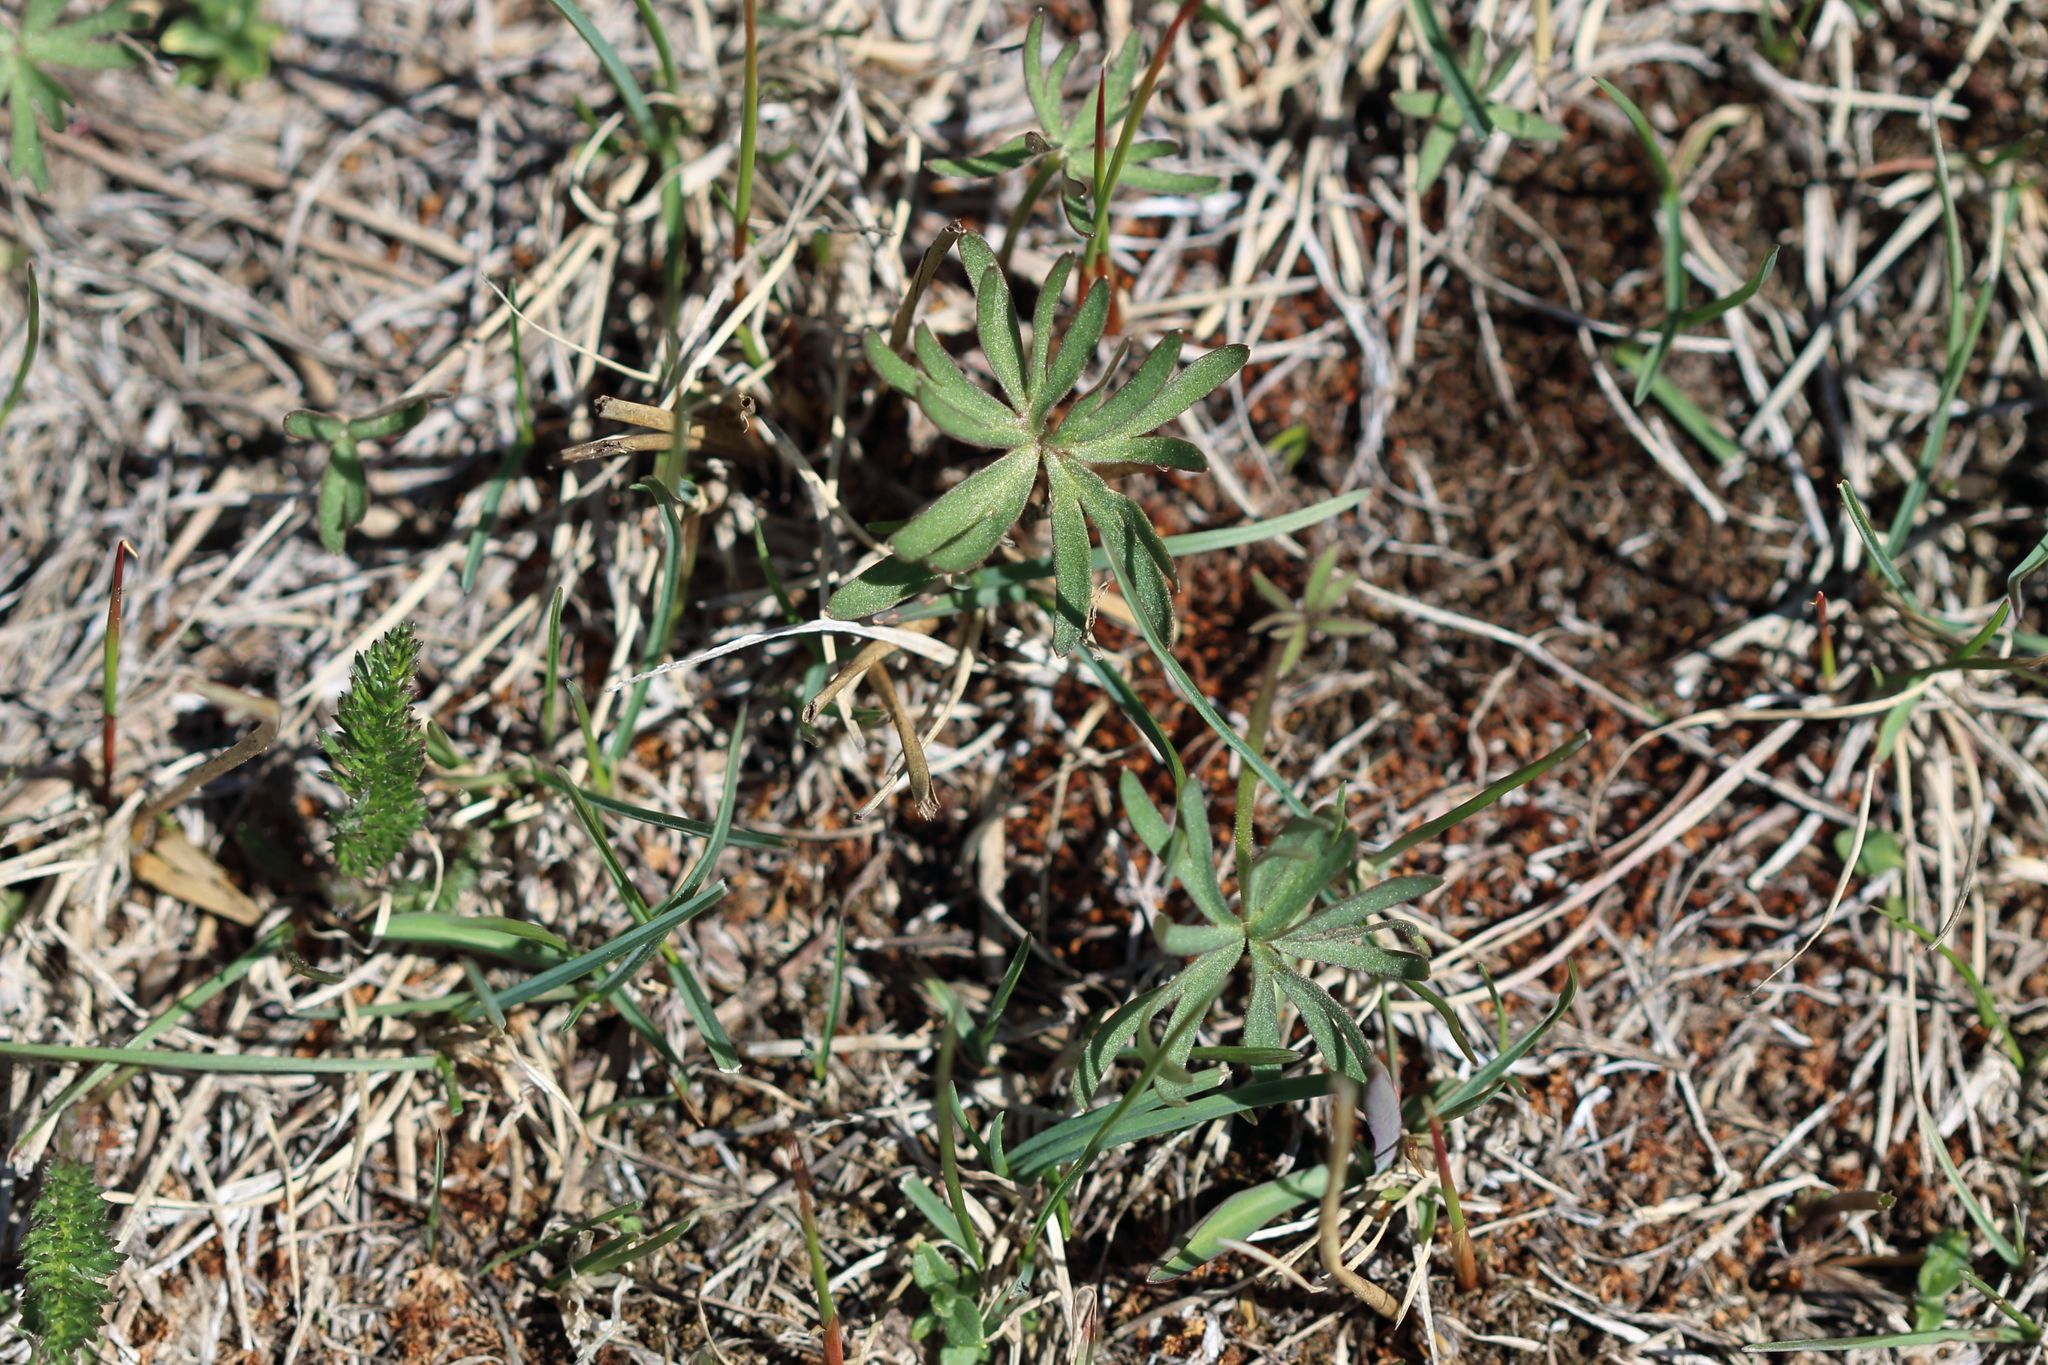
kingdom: Plantae
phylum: Tracheophyta
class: Magnoliopsida
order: Ranunculales
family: Ranunculaceae
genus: Delphinium
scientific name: Delphinium nuttallianum
